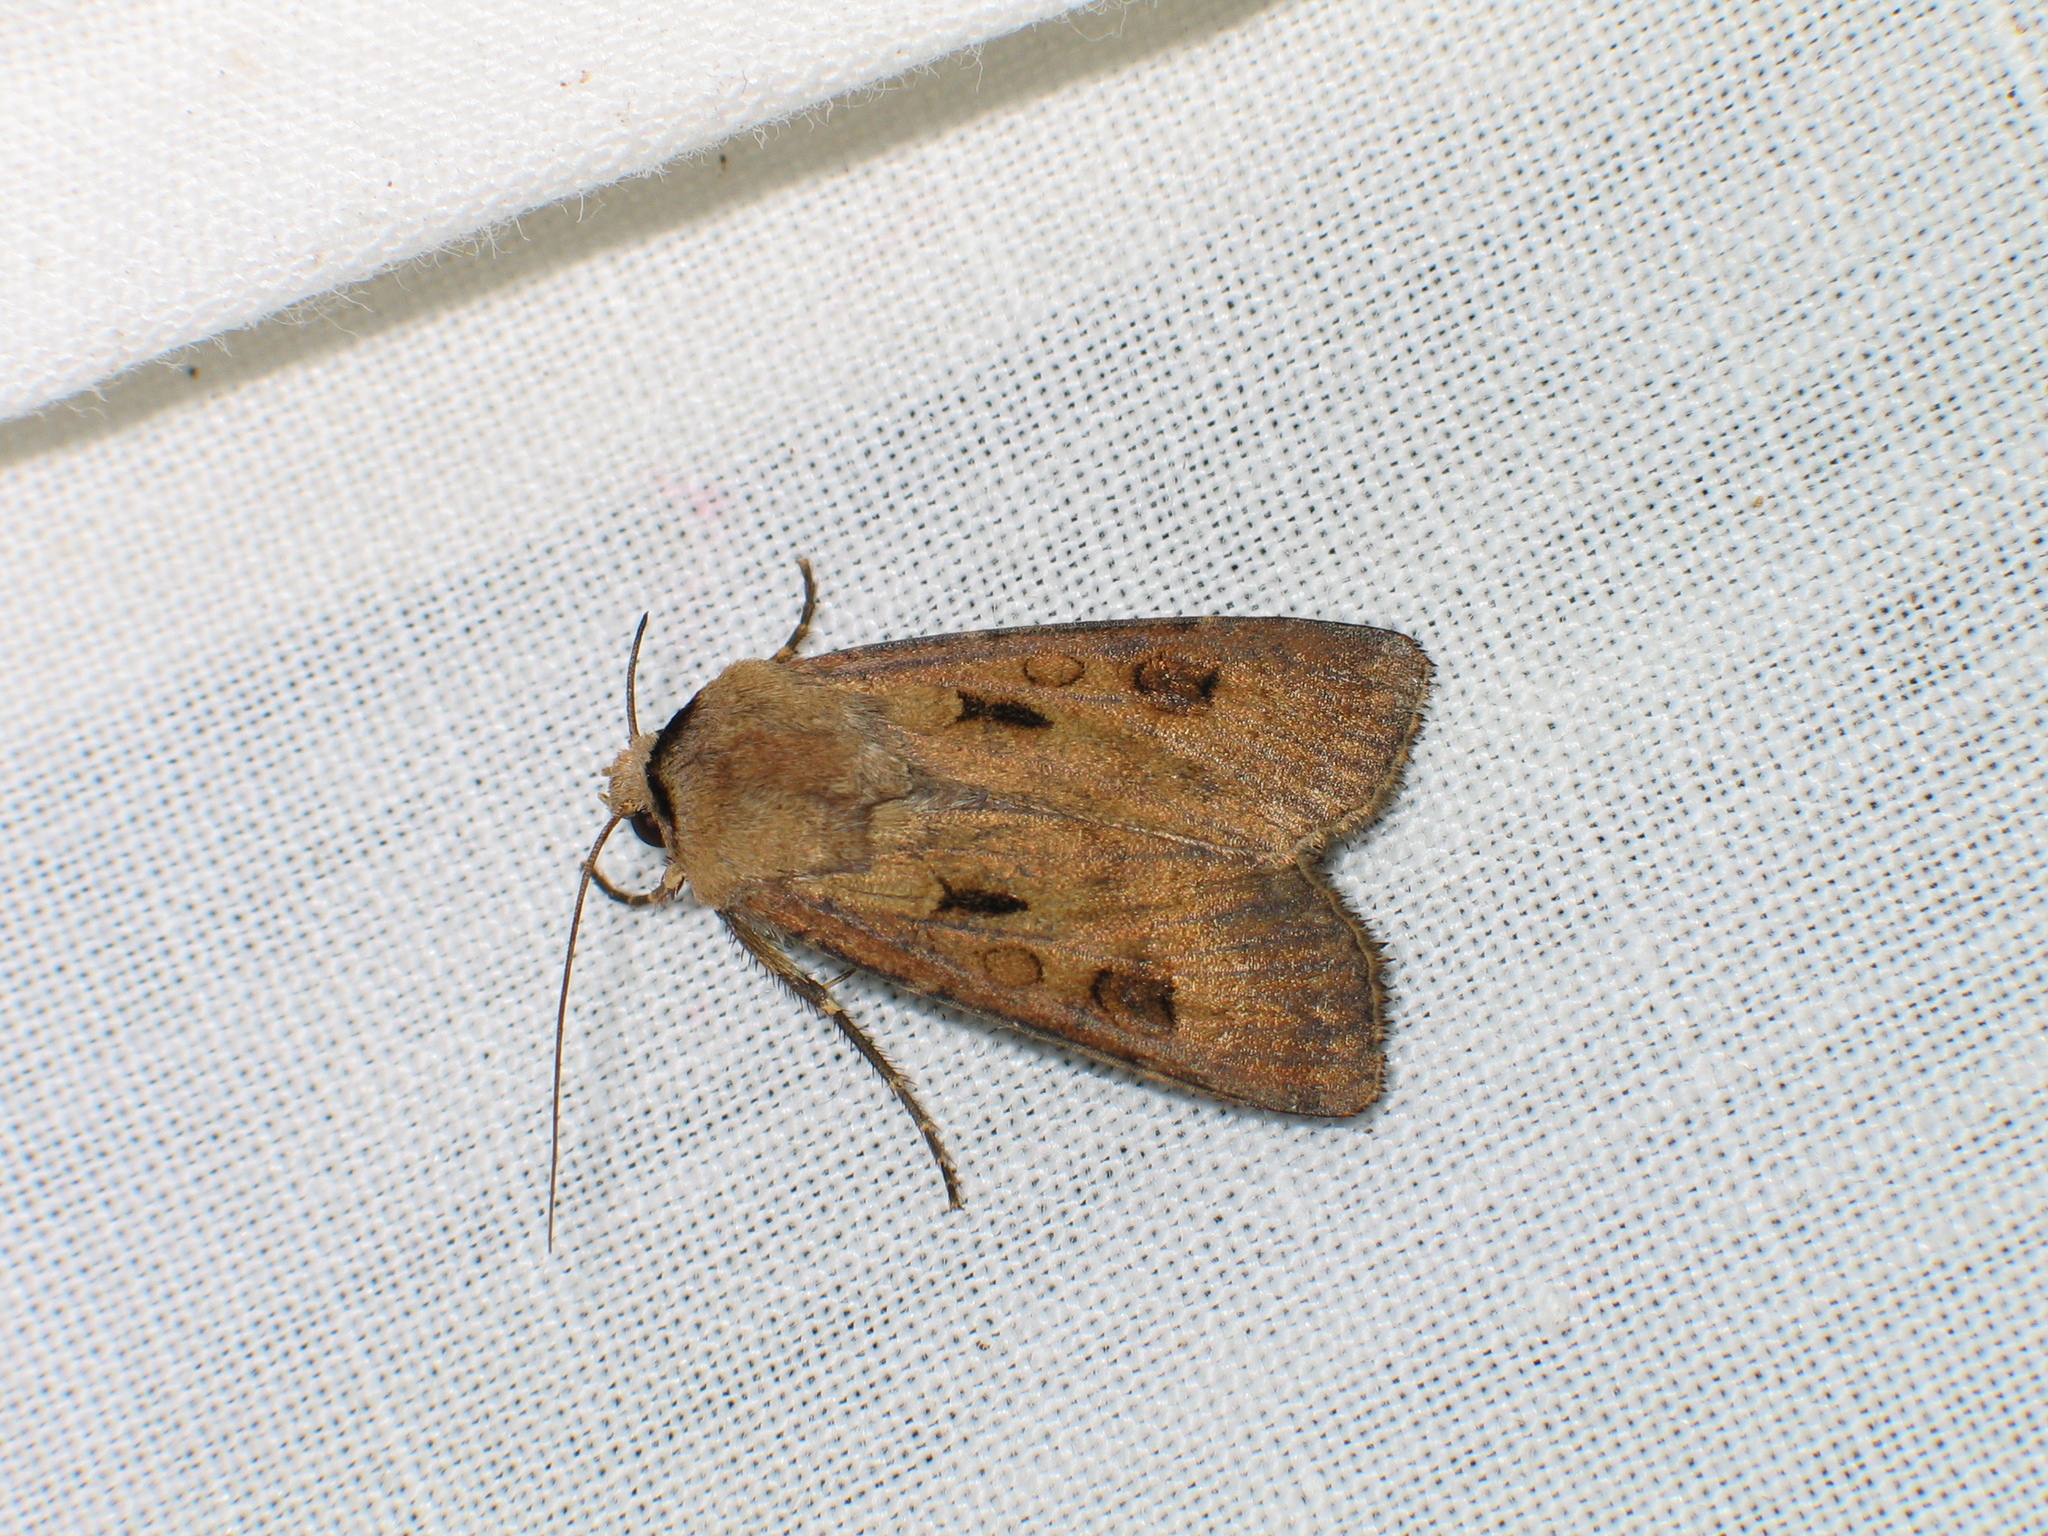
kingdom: Animalia
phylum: Arthropoda
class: Insecta
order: Lepidoptera
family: Noctuidae
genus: Agrotis
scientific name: Agrotis exclamationis
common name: Heart and dart
